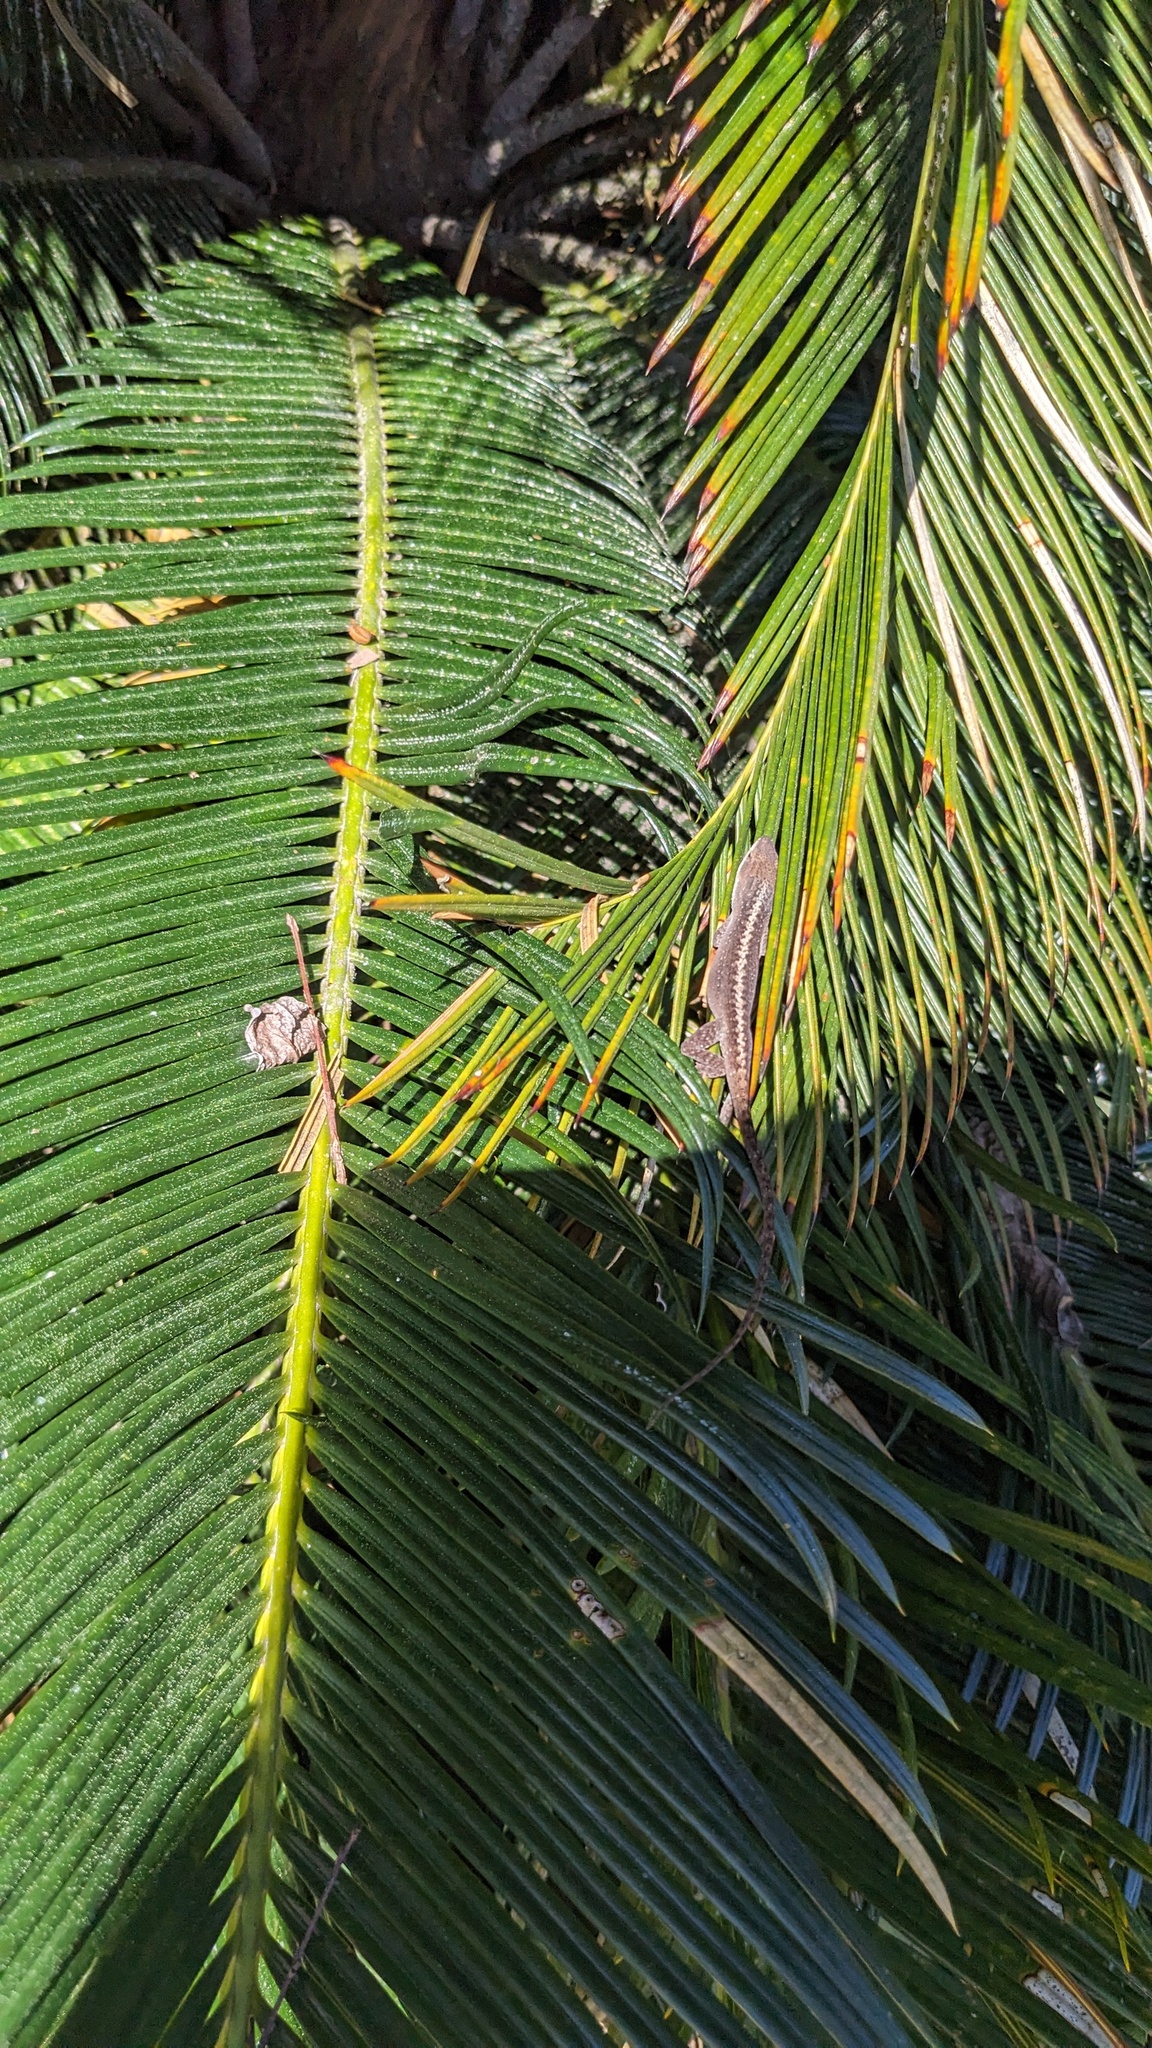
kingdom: Animalia
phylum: Chordata
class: Squamata
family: Dactyloidae
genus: Anolis
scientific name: Anolis carolinensis
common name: Green anole
